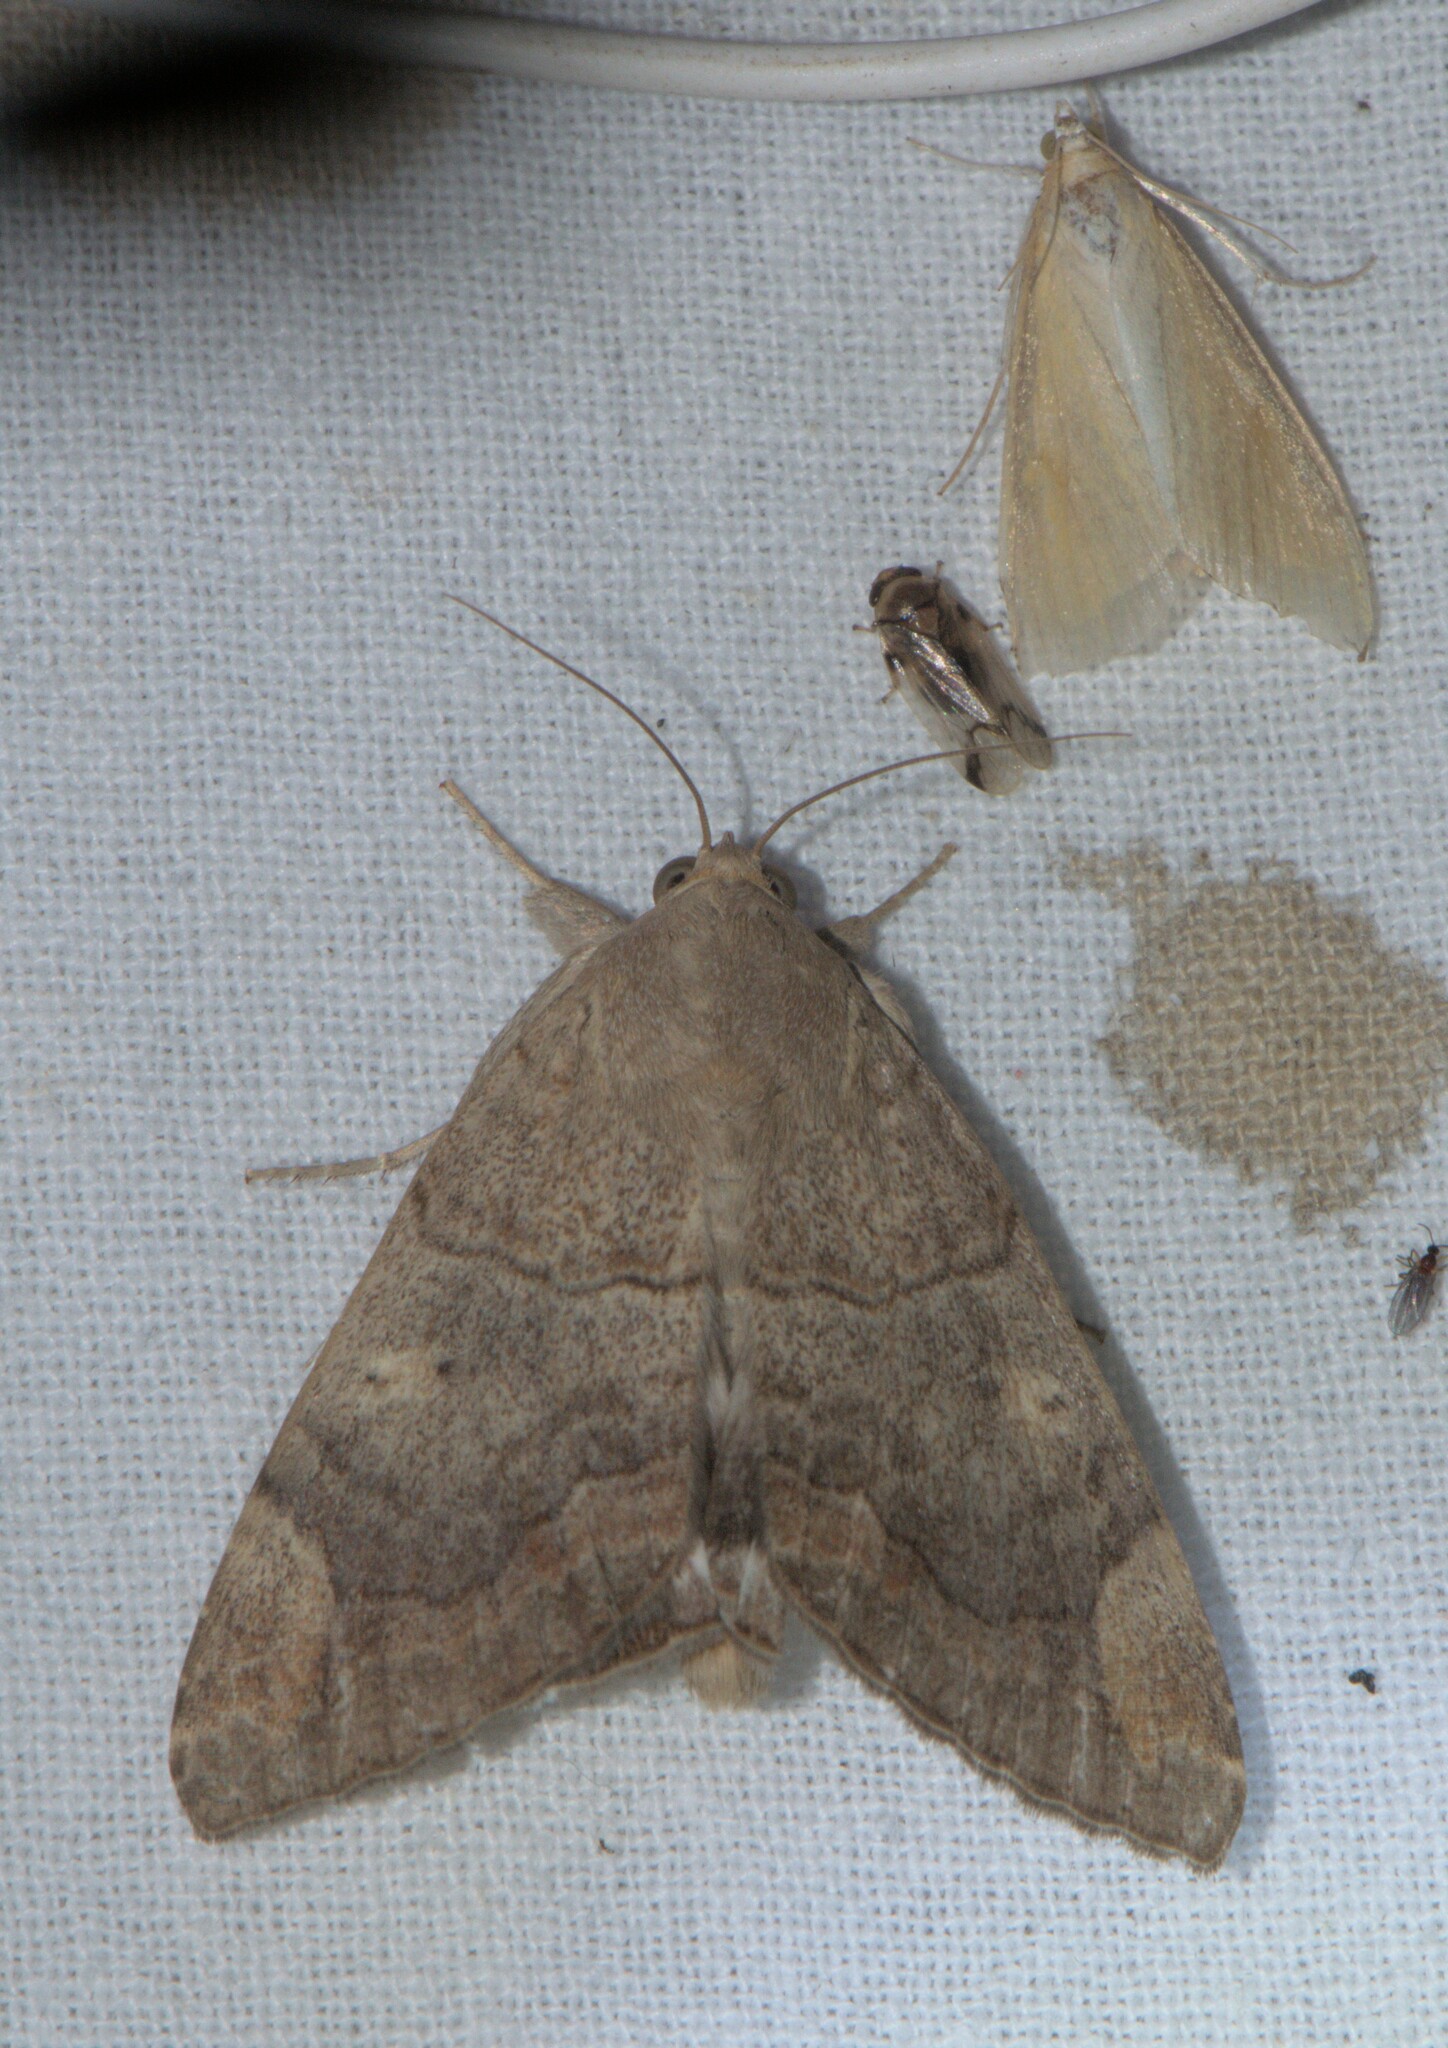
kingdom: Animalia
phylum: Arthropoda
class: Insecta
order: Lepidoptera
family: Erebidae
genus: Achaea
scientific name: Achaea janata
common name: Croton caterpillar
